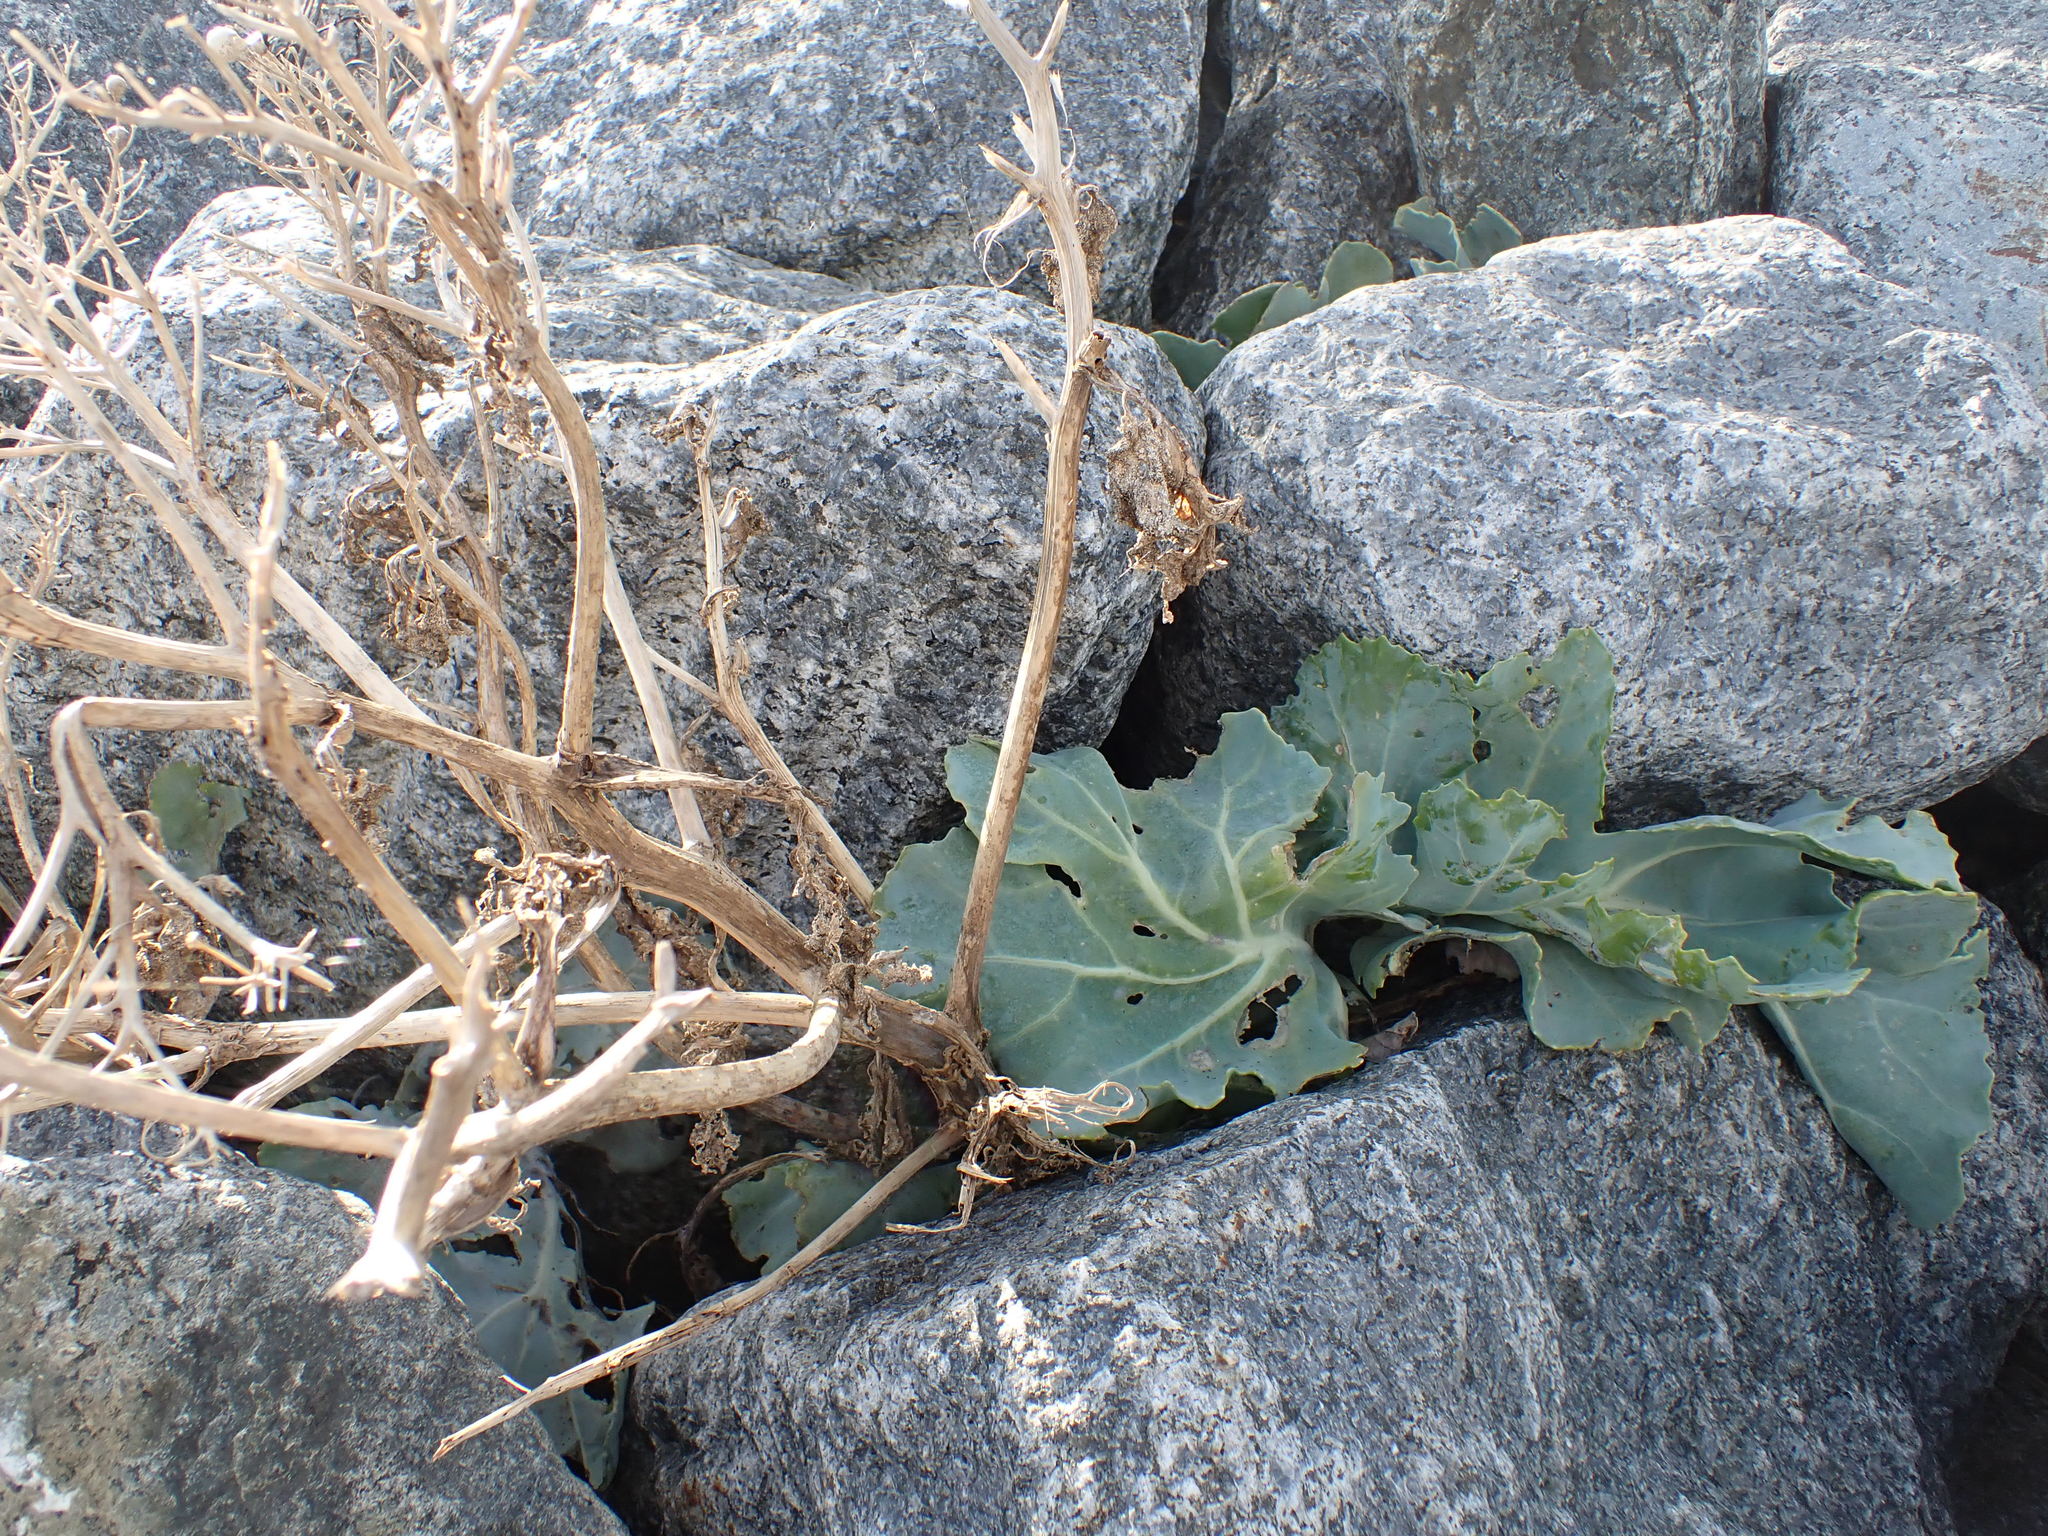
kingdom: Plantae
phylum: Tracheophyta
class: Magnoliopsida
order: Brassicales
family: Brassicaceae
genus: Crambe
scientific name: Crambe maritima
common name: Sea-kale
